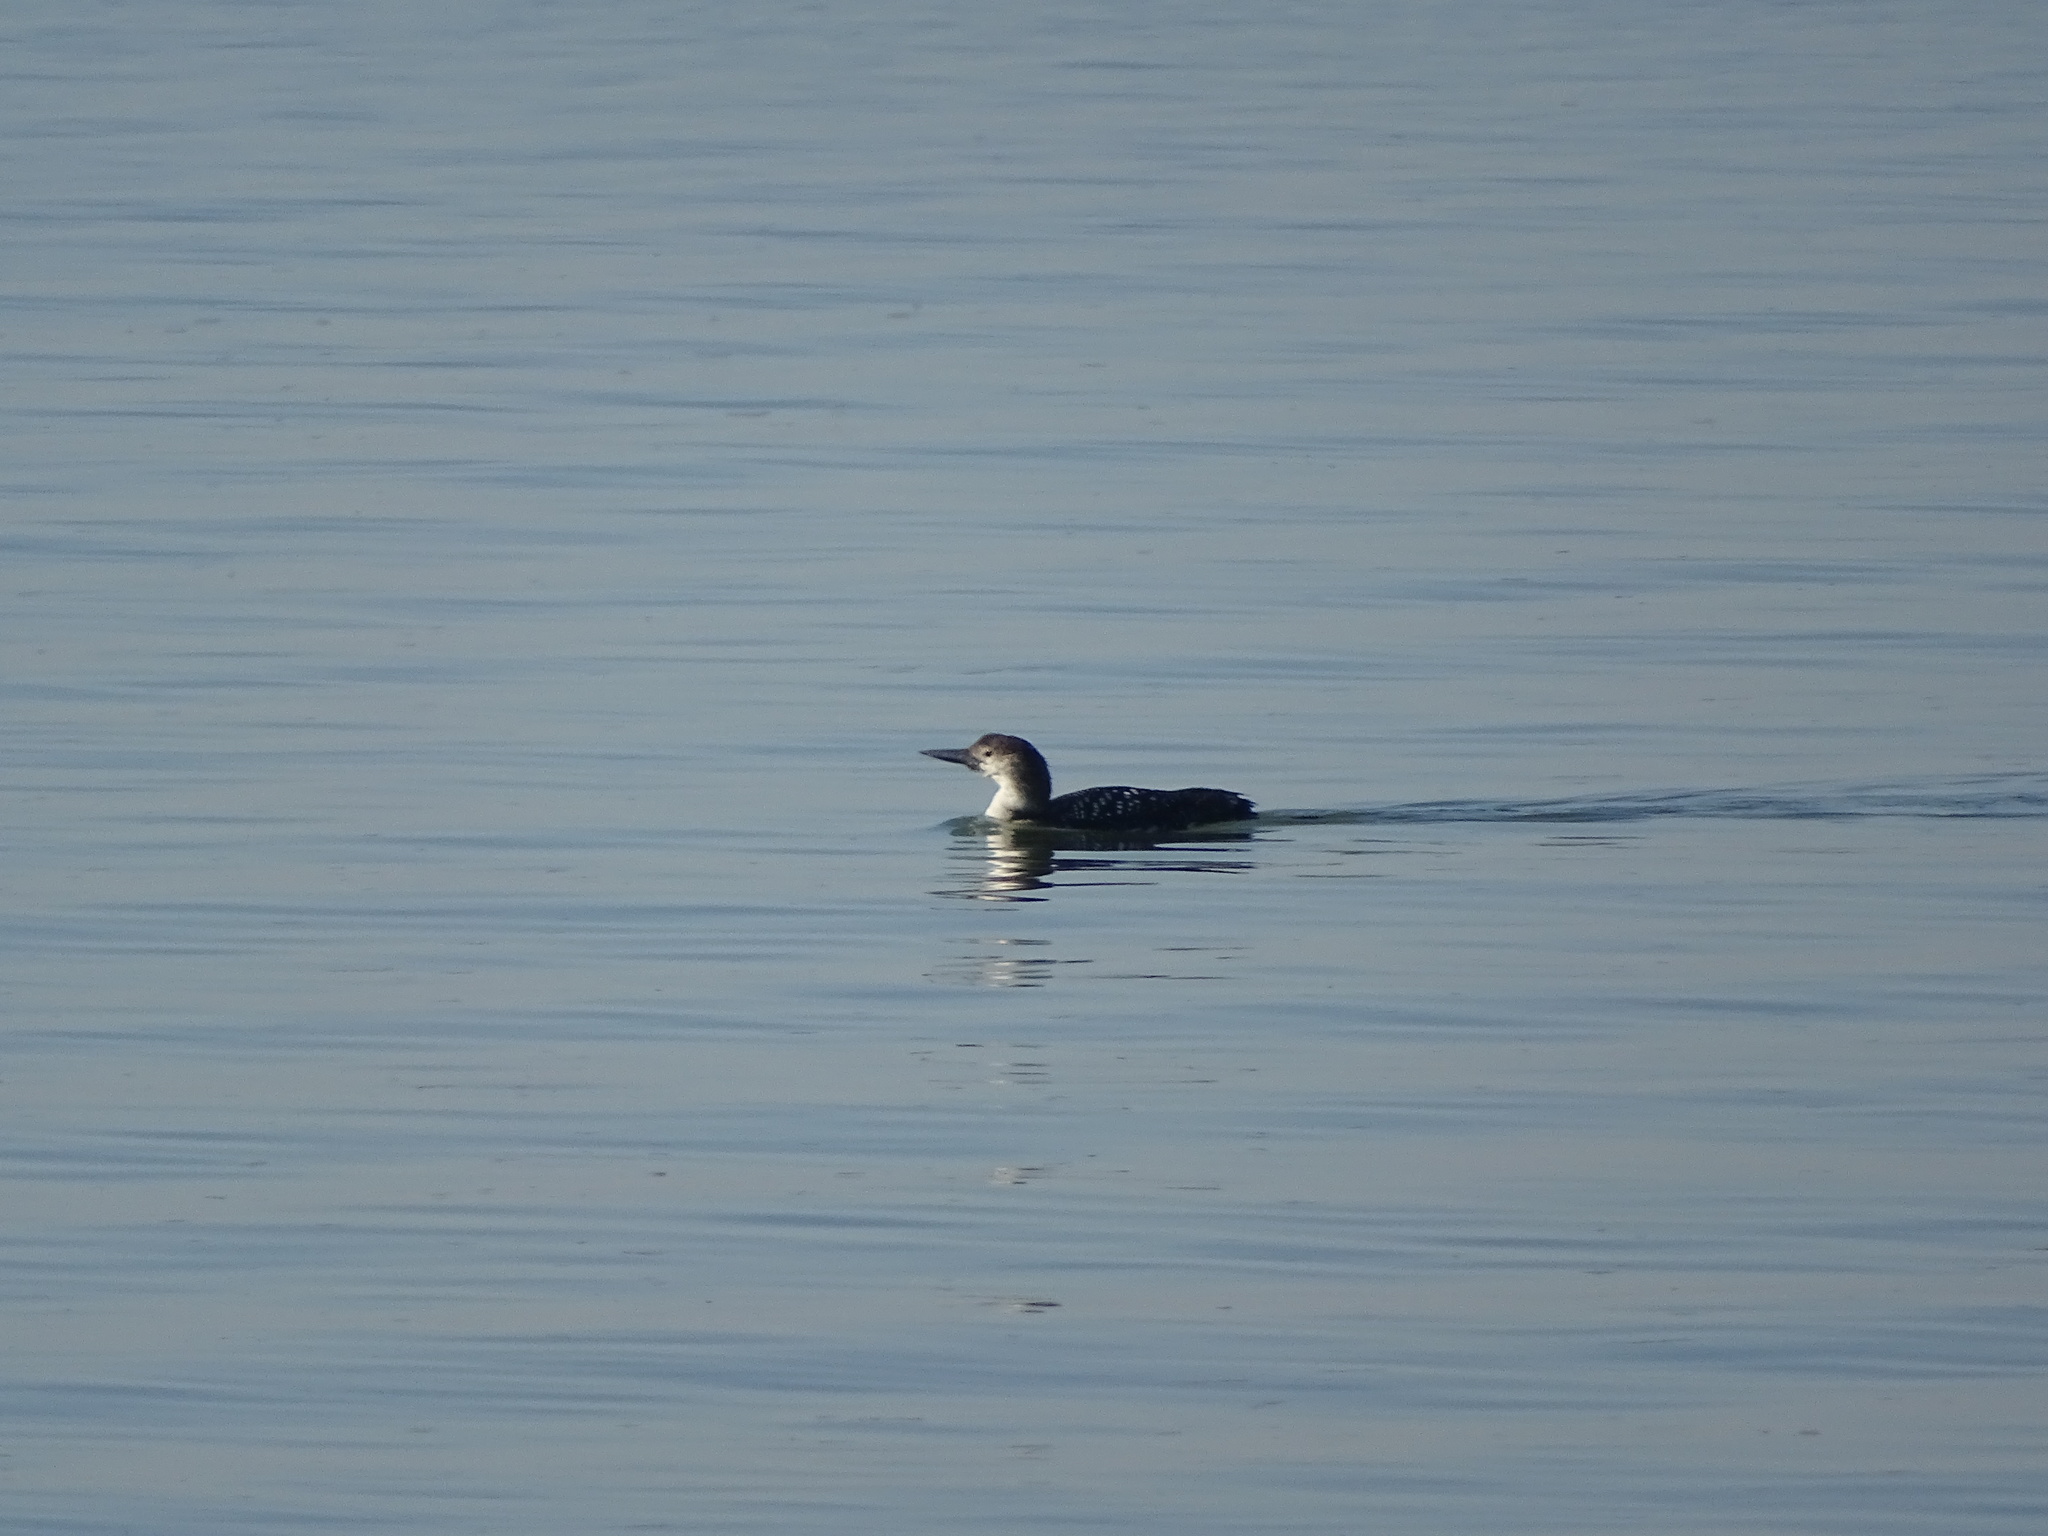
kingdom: Animalia
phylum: Chordata
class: Aves
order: Gaviiformes
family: Gaviidae
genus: Gavia
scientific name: Gavia immer
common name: Common loon
